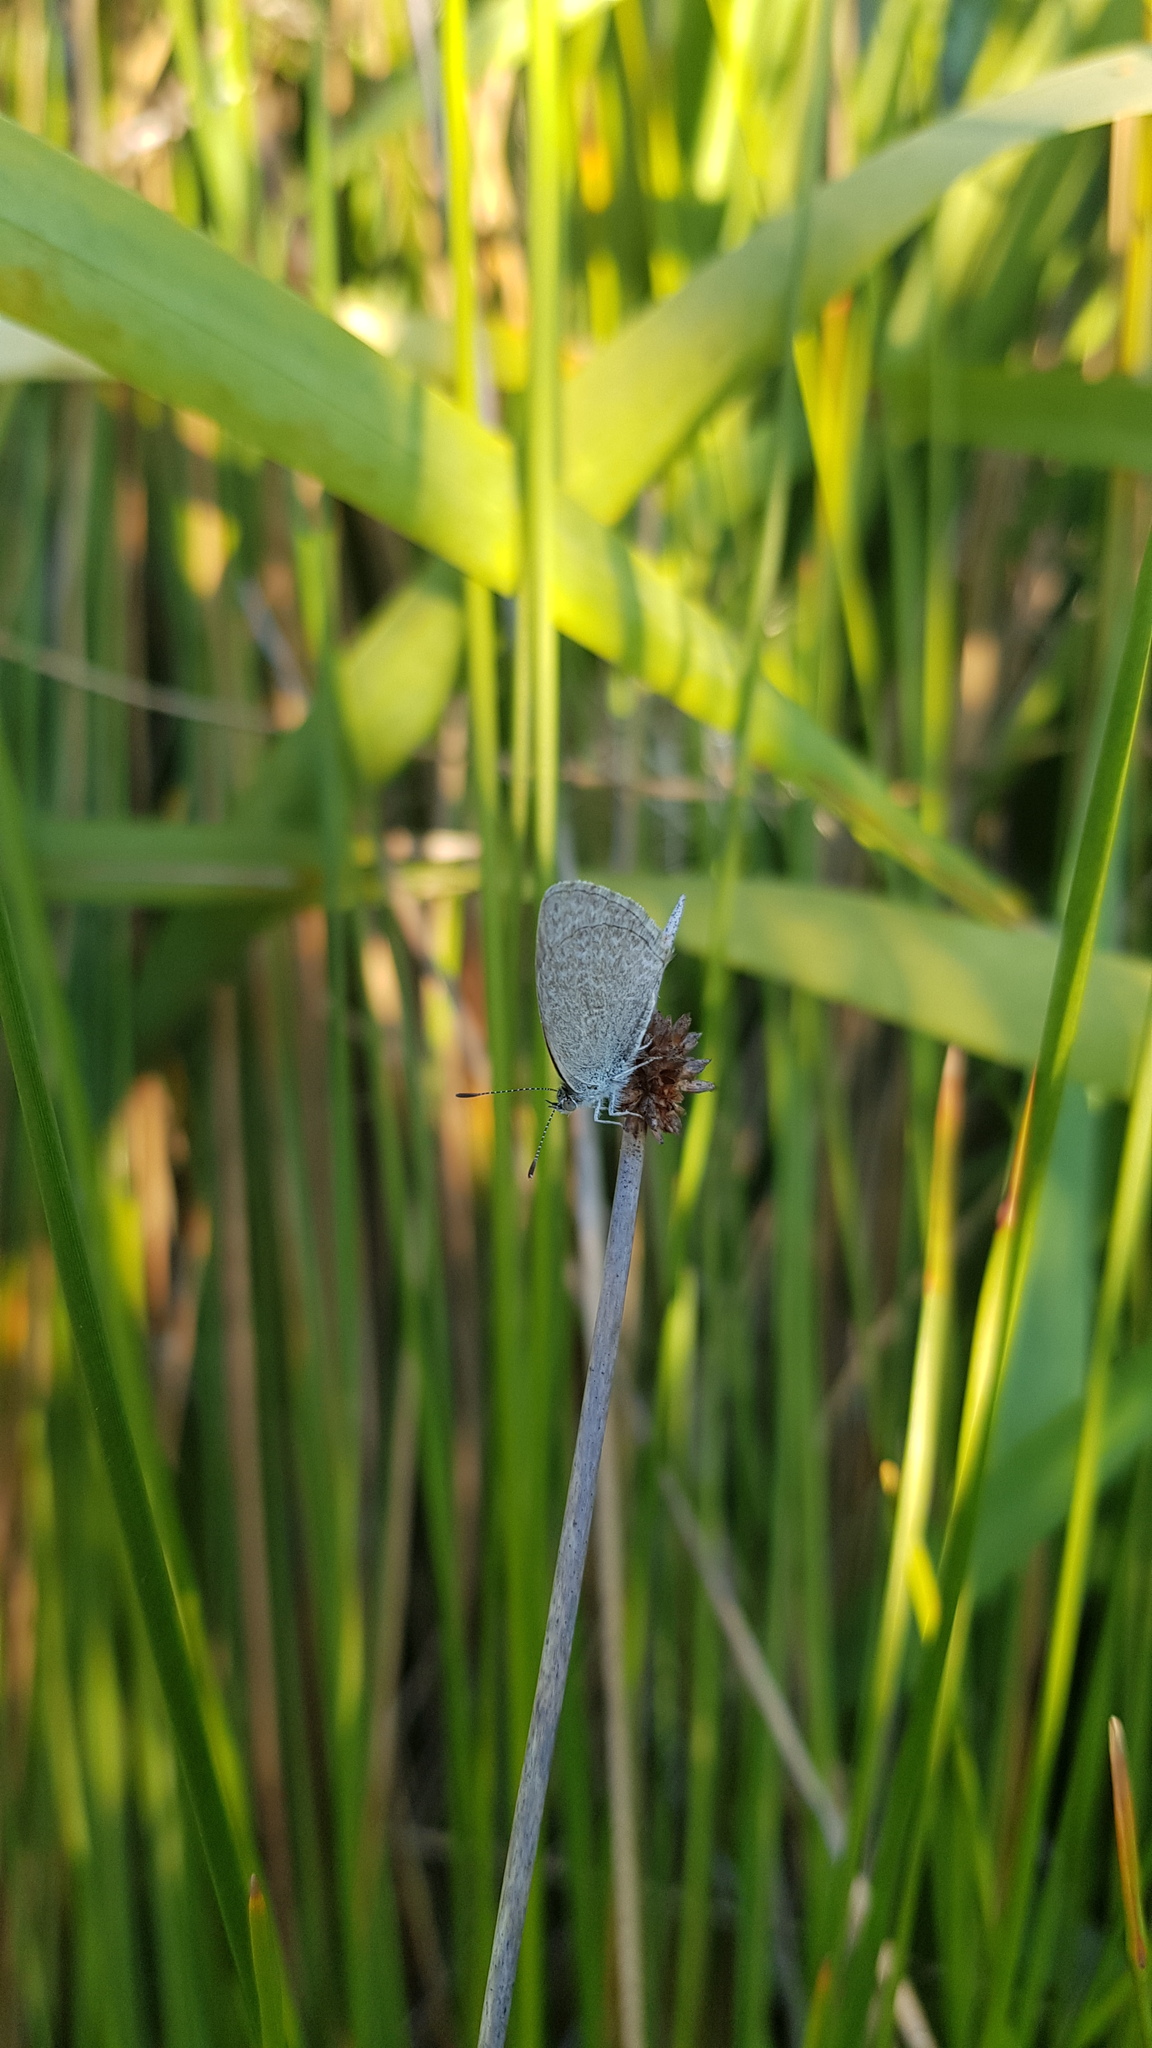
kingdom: Animalia
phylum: Arthropoda
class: Insecta
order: Lepidoptera
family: Lycaenidae
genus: Zizina
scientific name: Zizina labradus
